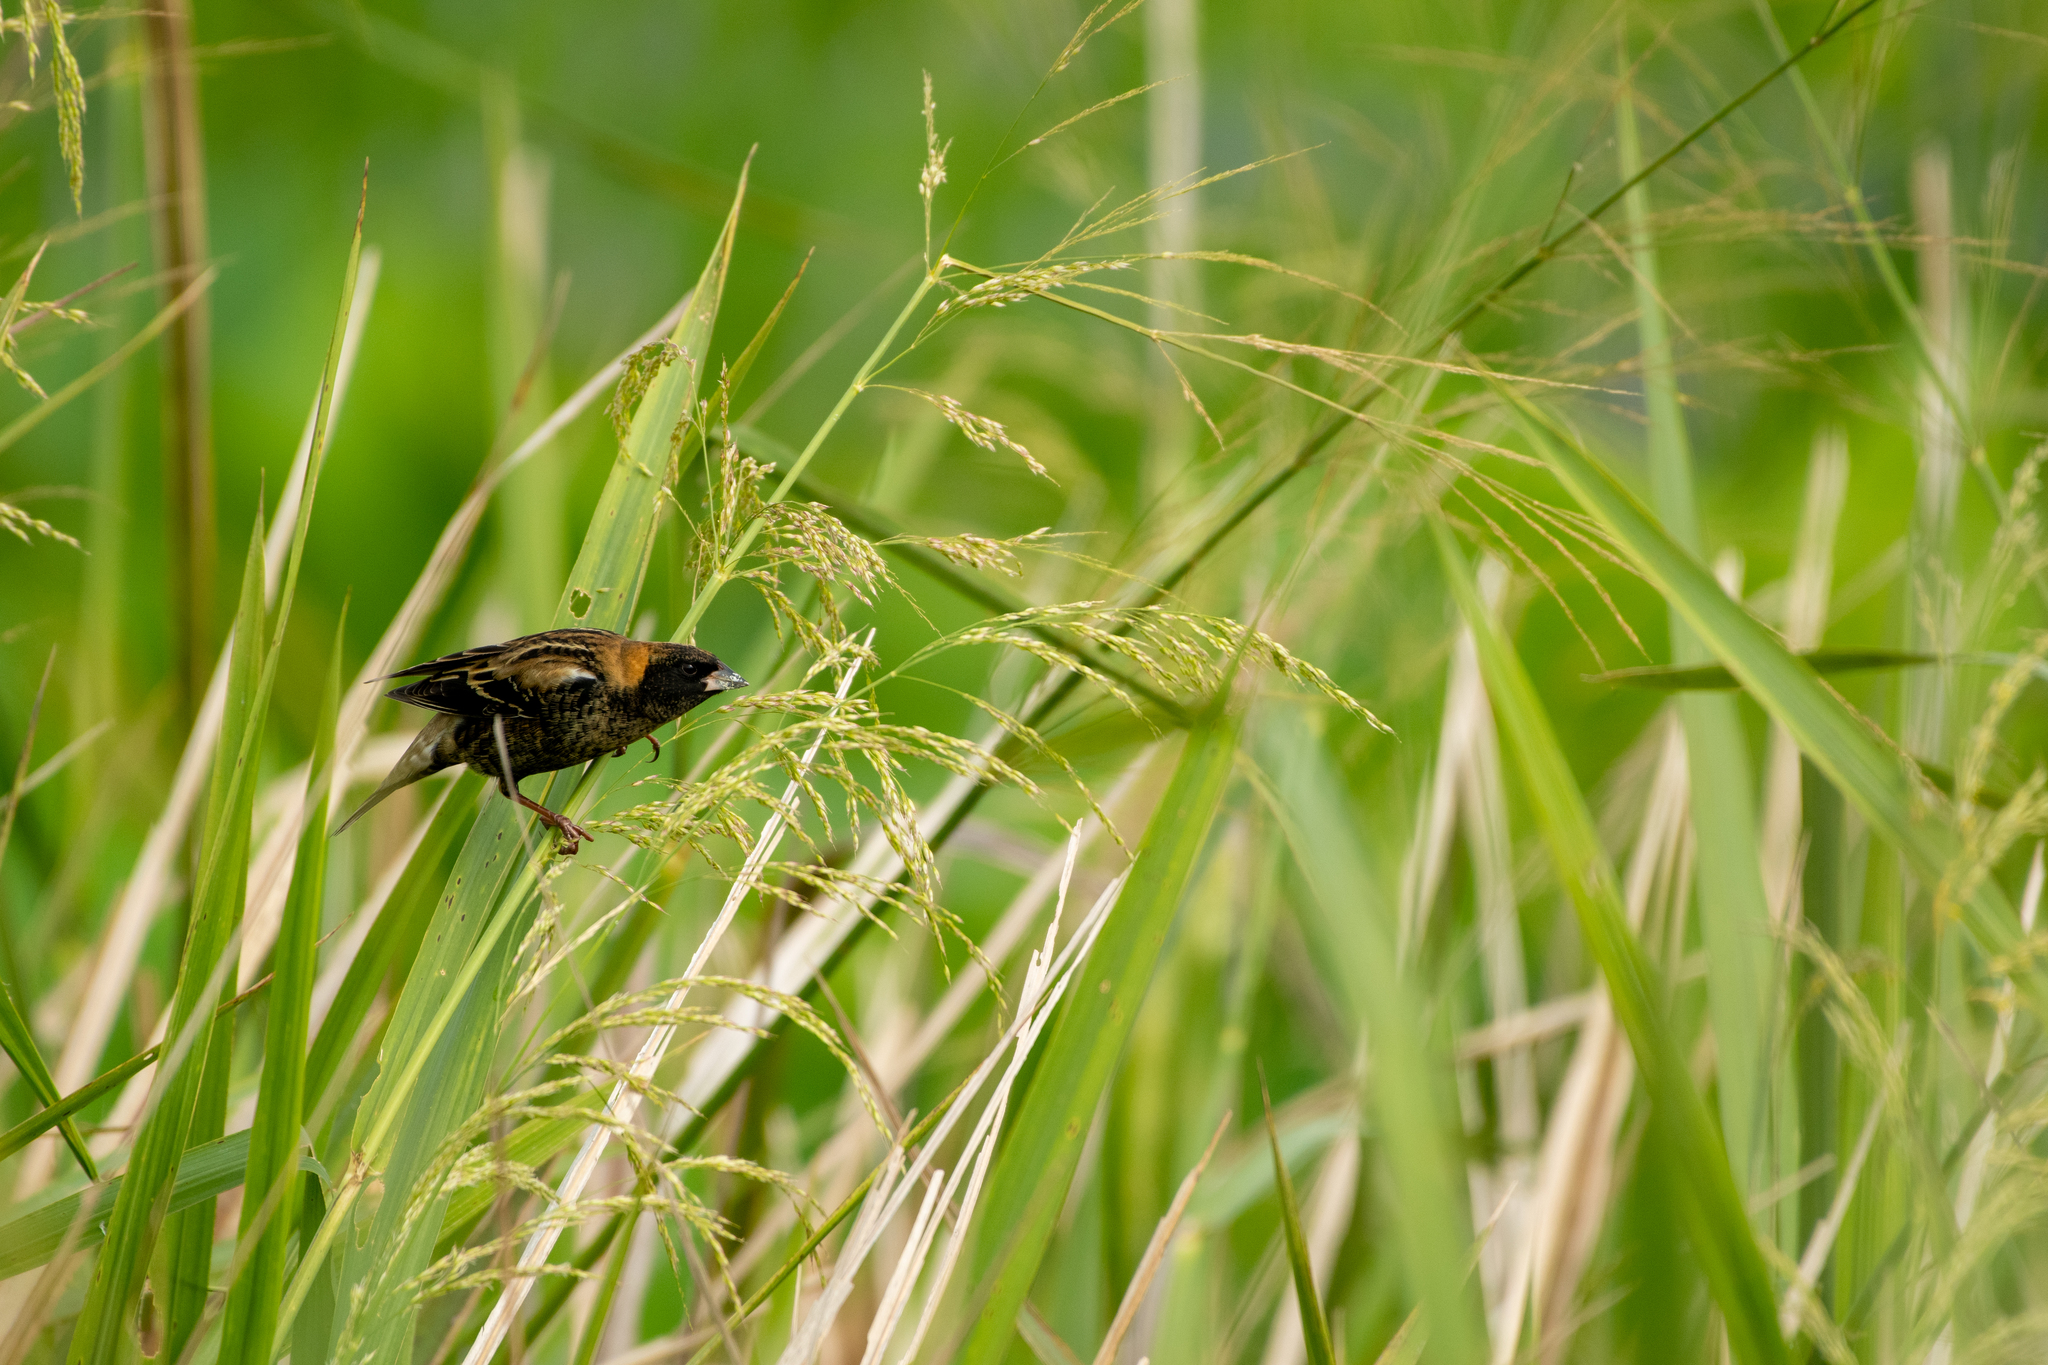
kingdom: Animalia
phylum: Chordata
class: Aves
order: Passeriformes
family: Icteridae
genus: Dolichonyx
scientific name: Dolichonyx oryzivorus
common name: Bobolink
